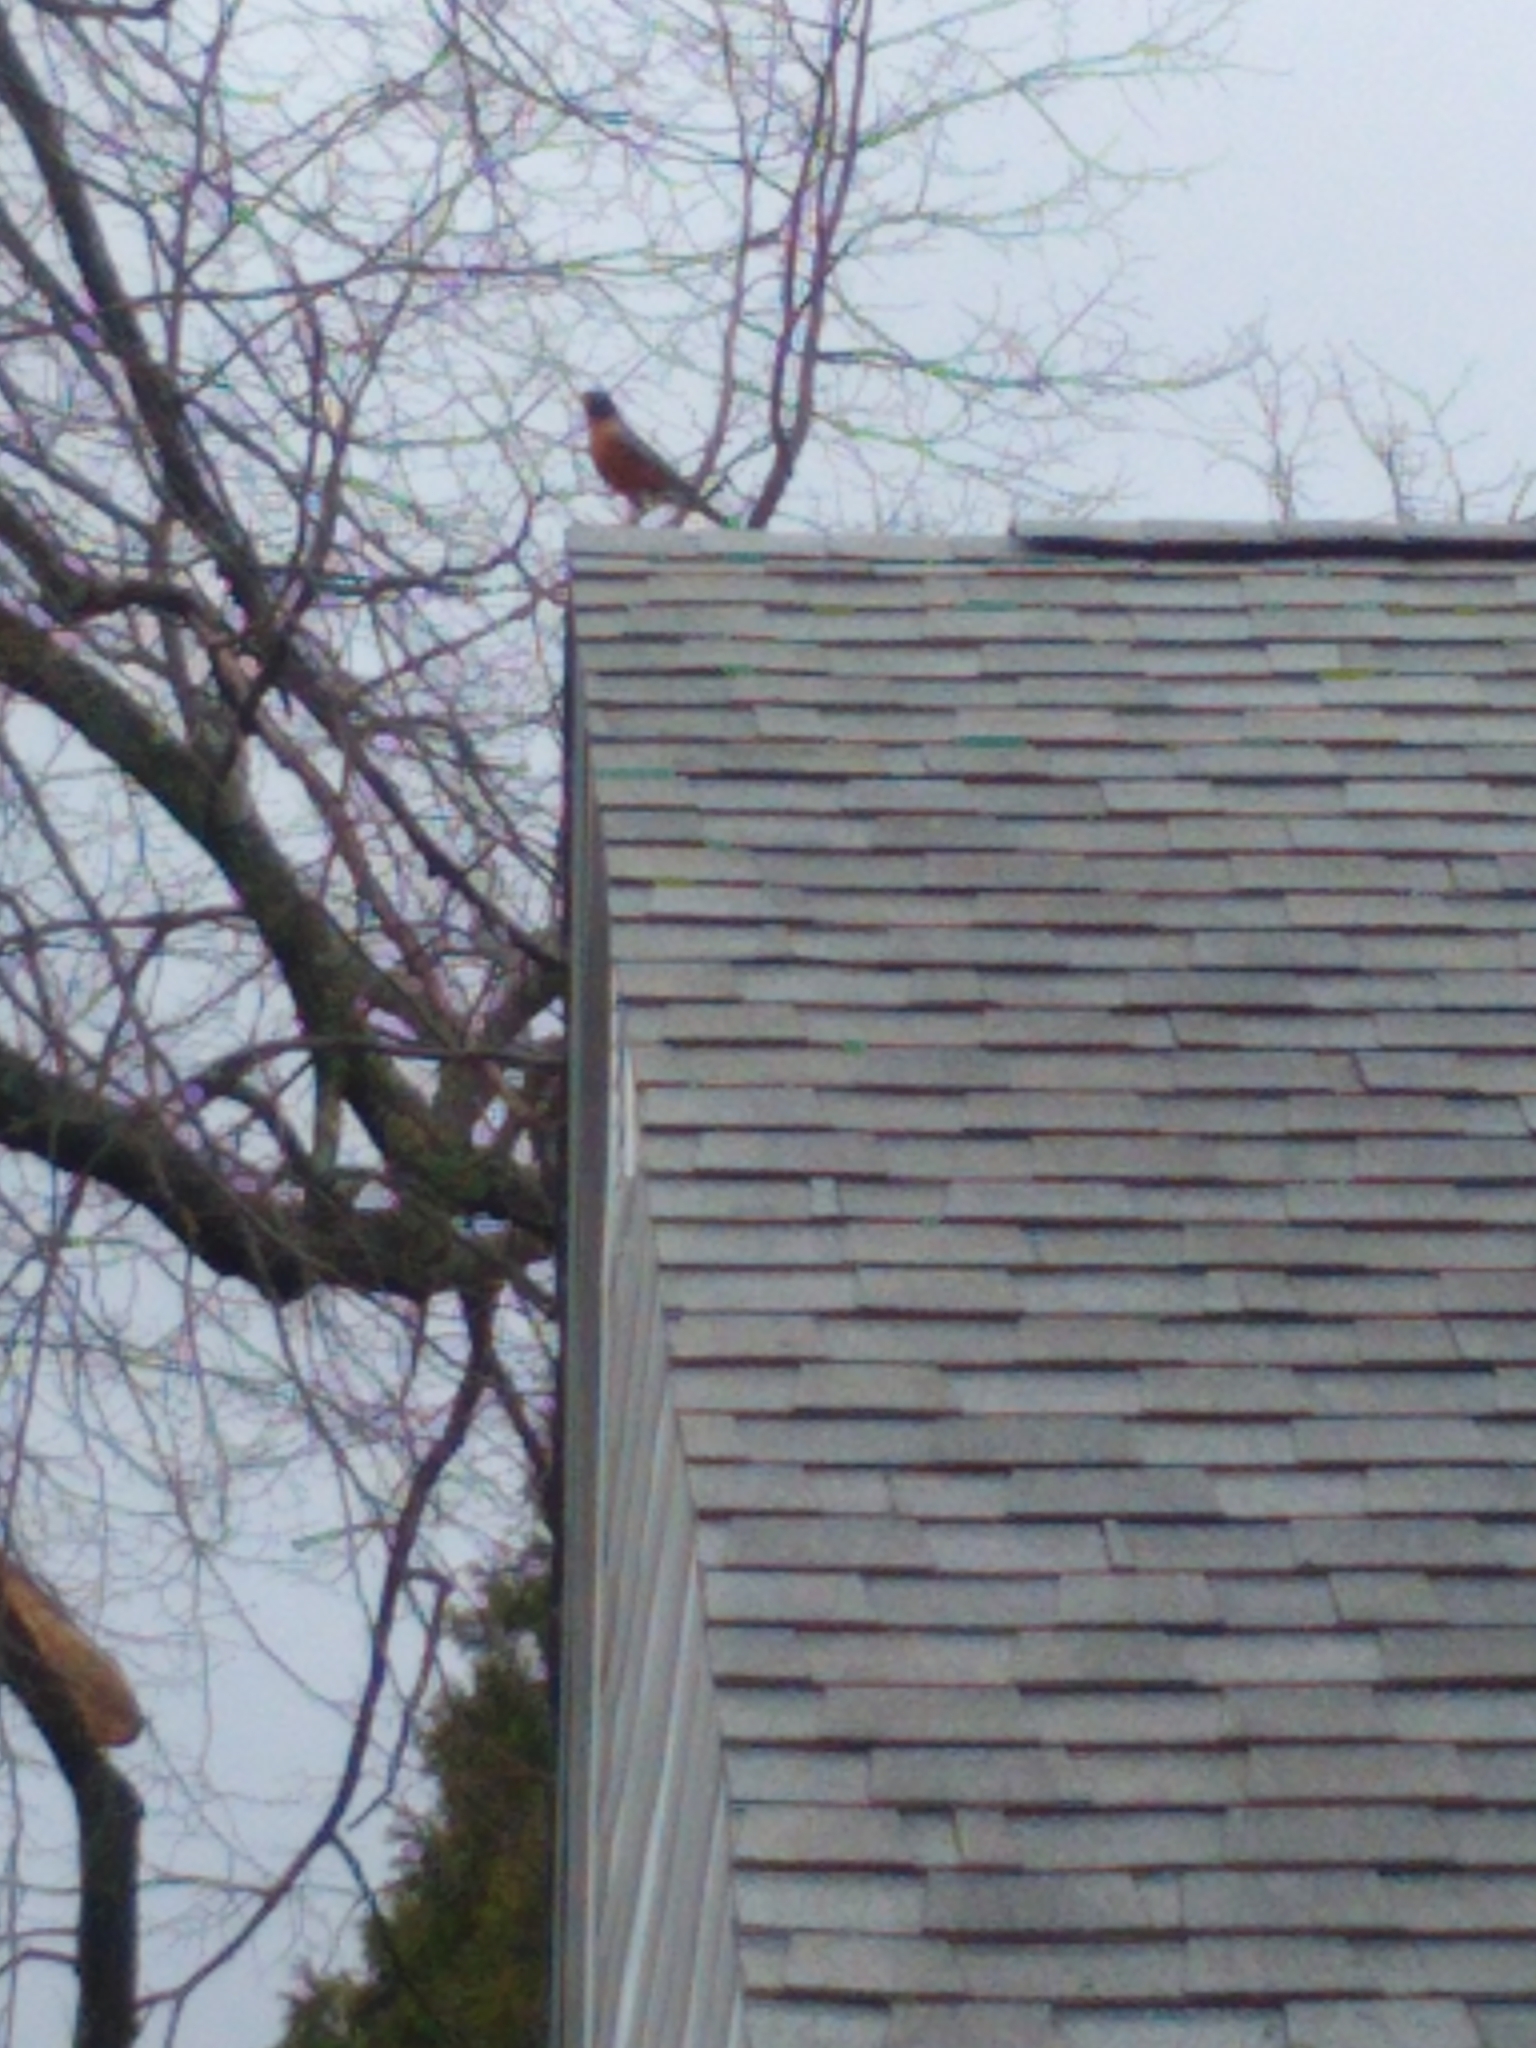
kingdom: Animalia
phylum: Chordata
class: Aves
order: Passeriformes
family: Turdidae
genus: Turdus
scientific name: Turdus migratorius
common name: American robin
